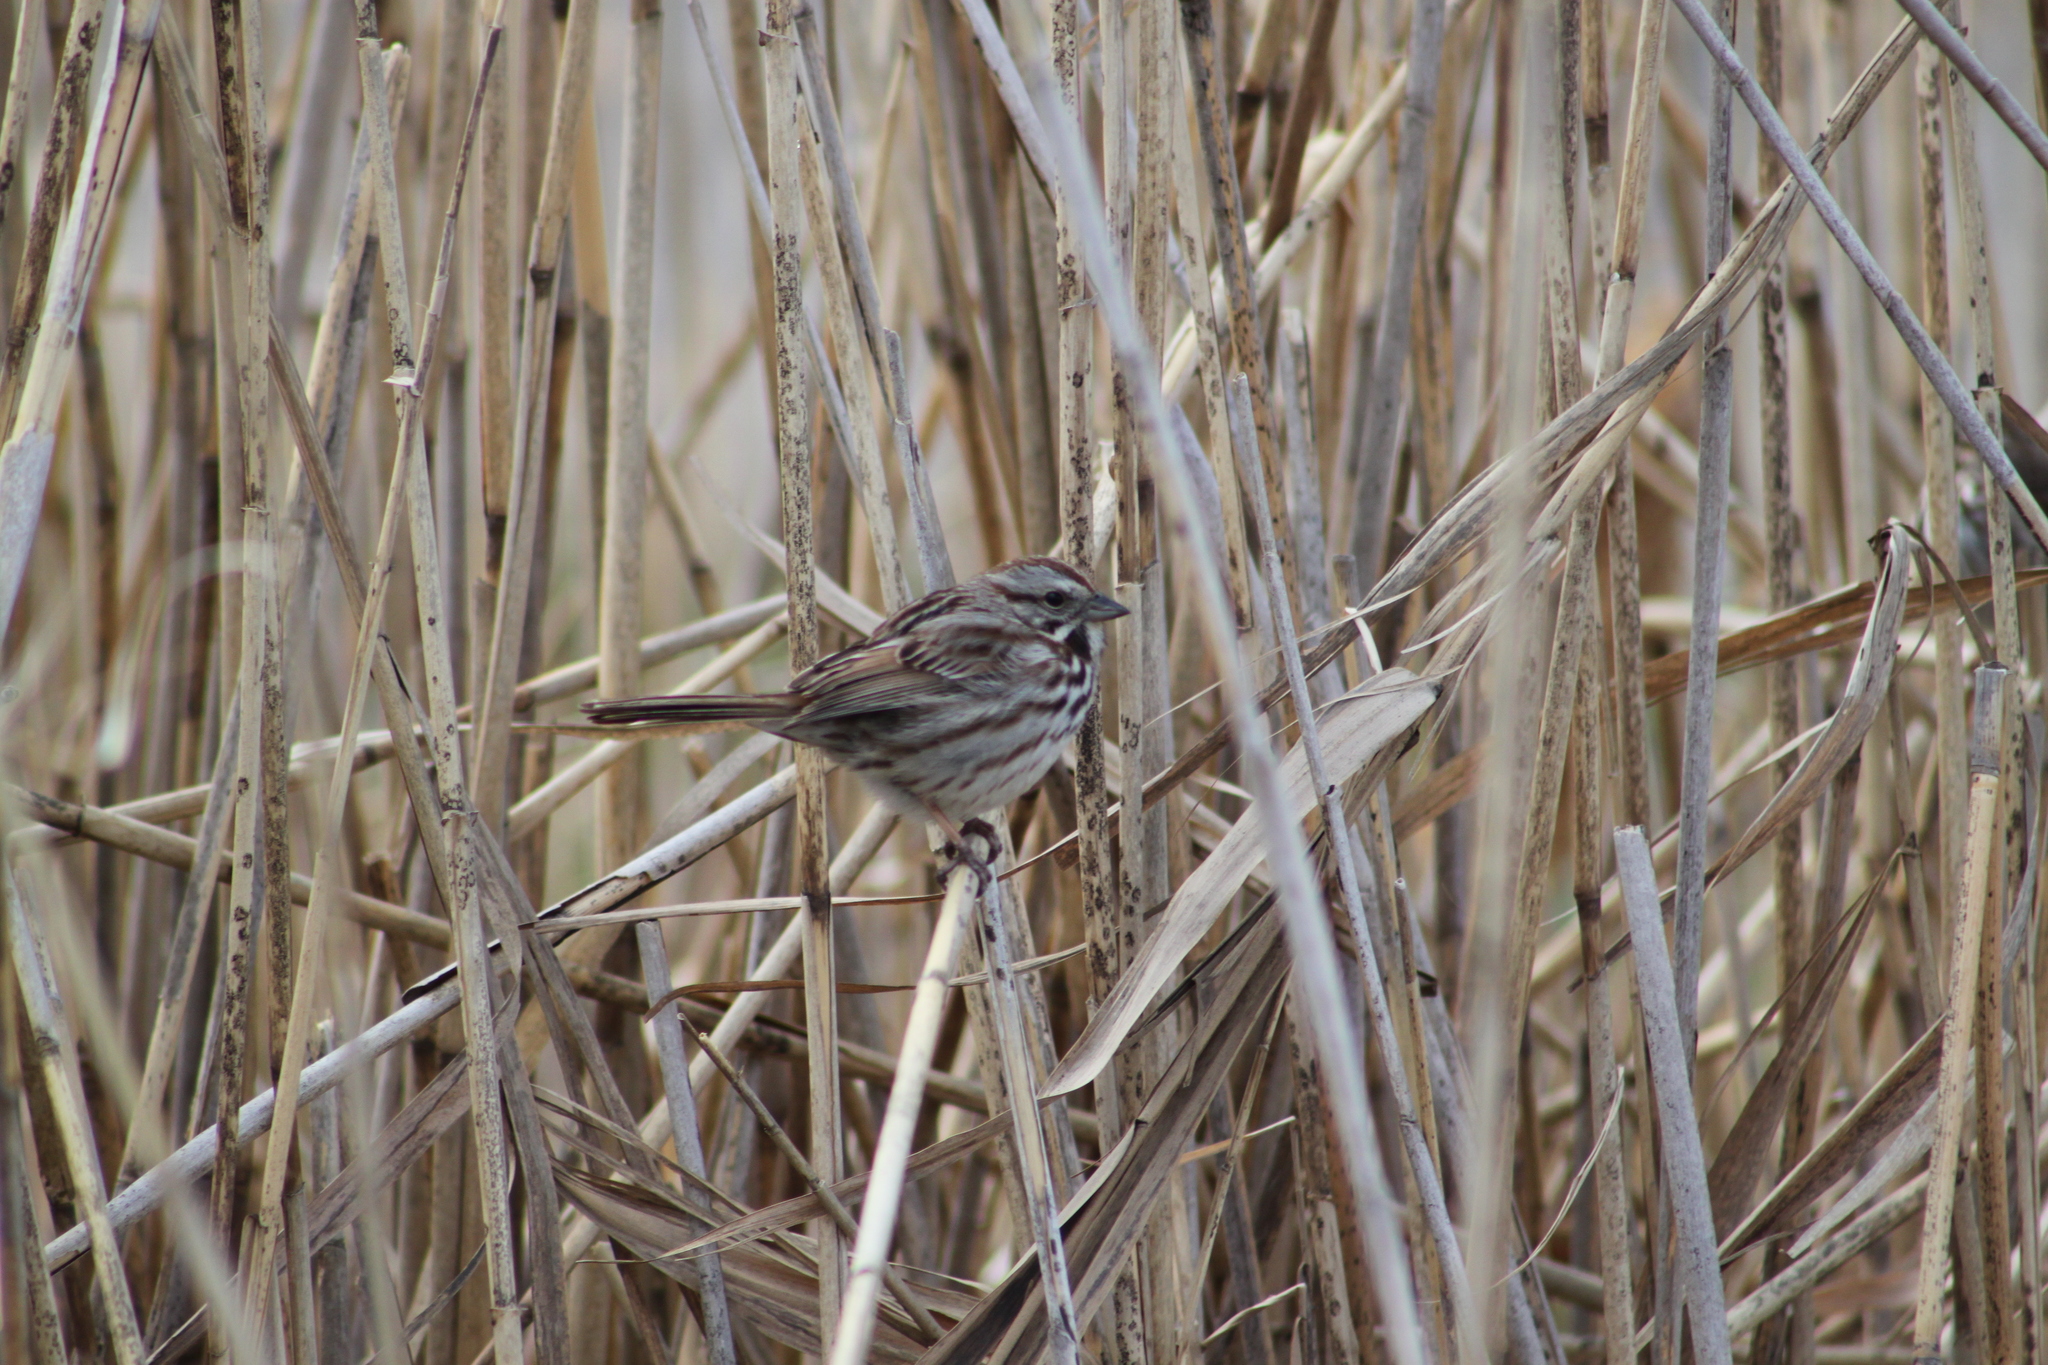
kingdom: Animalia
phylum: Chordata
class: Aves
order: Passeriformes
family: Passerellidae
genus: Melospiza
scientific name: Melospiza melodia
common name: Song sparrow
